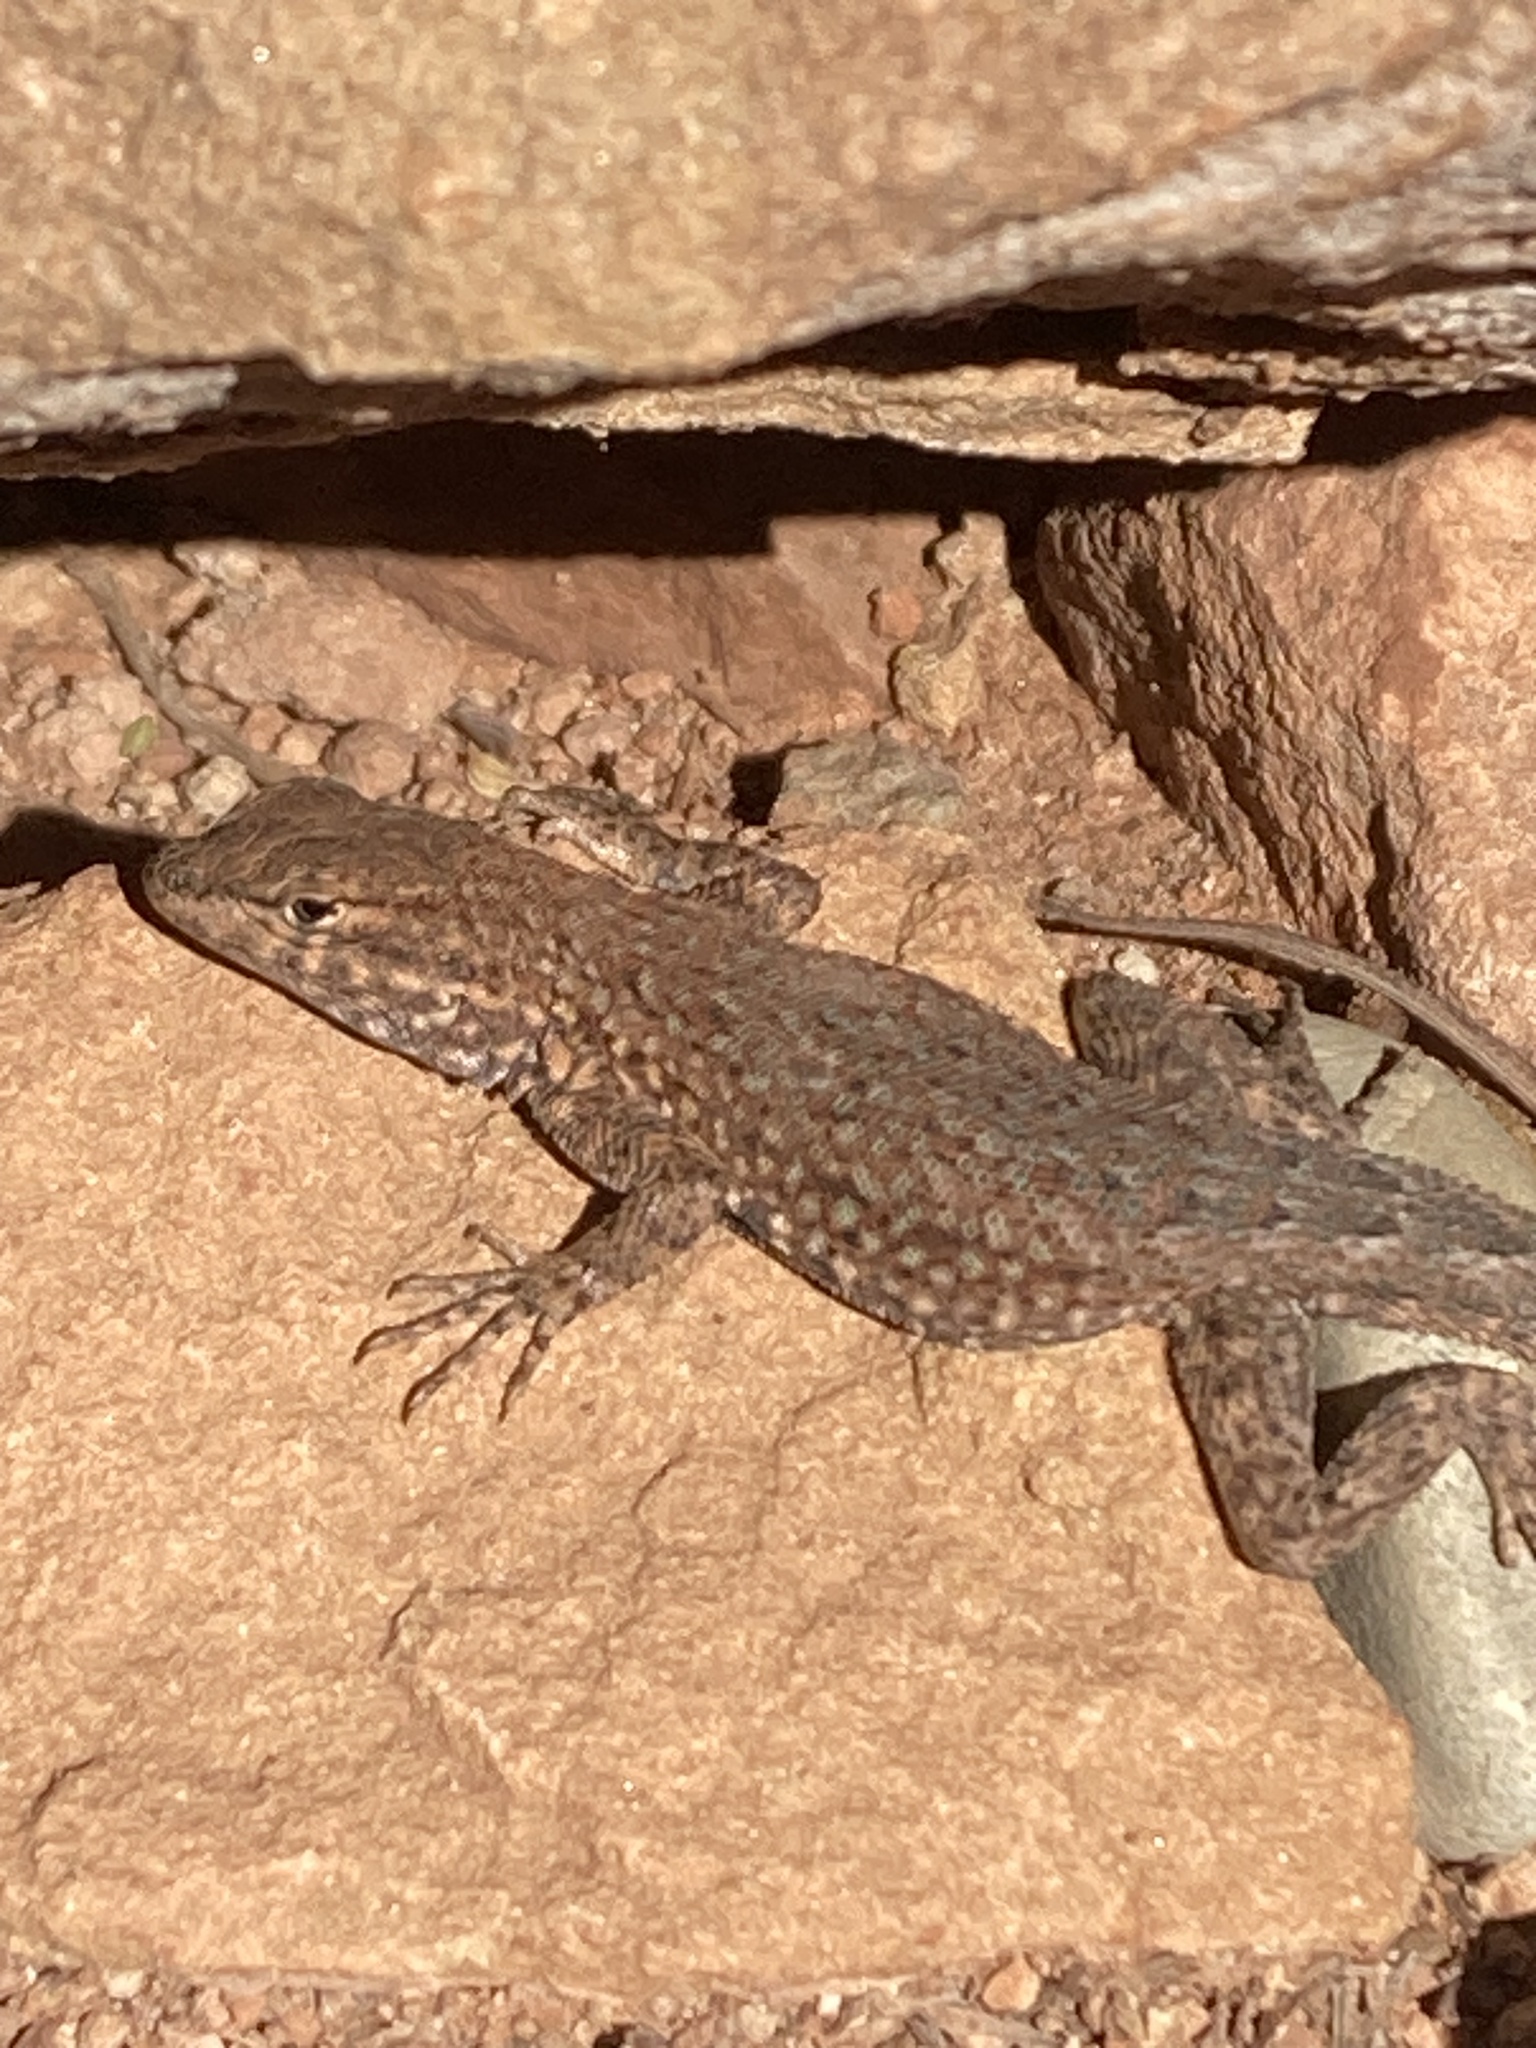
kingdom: Animalia
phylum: Chordata
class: Squamata
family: Phrynosomatidae
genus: Uta
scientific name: Uta stansburiana
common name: Side-blotched lizard
